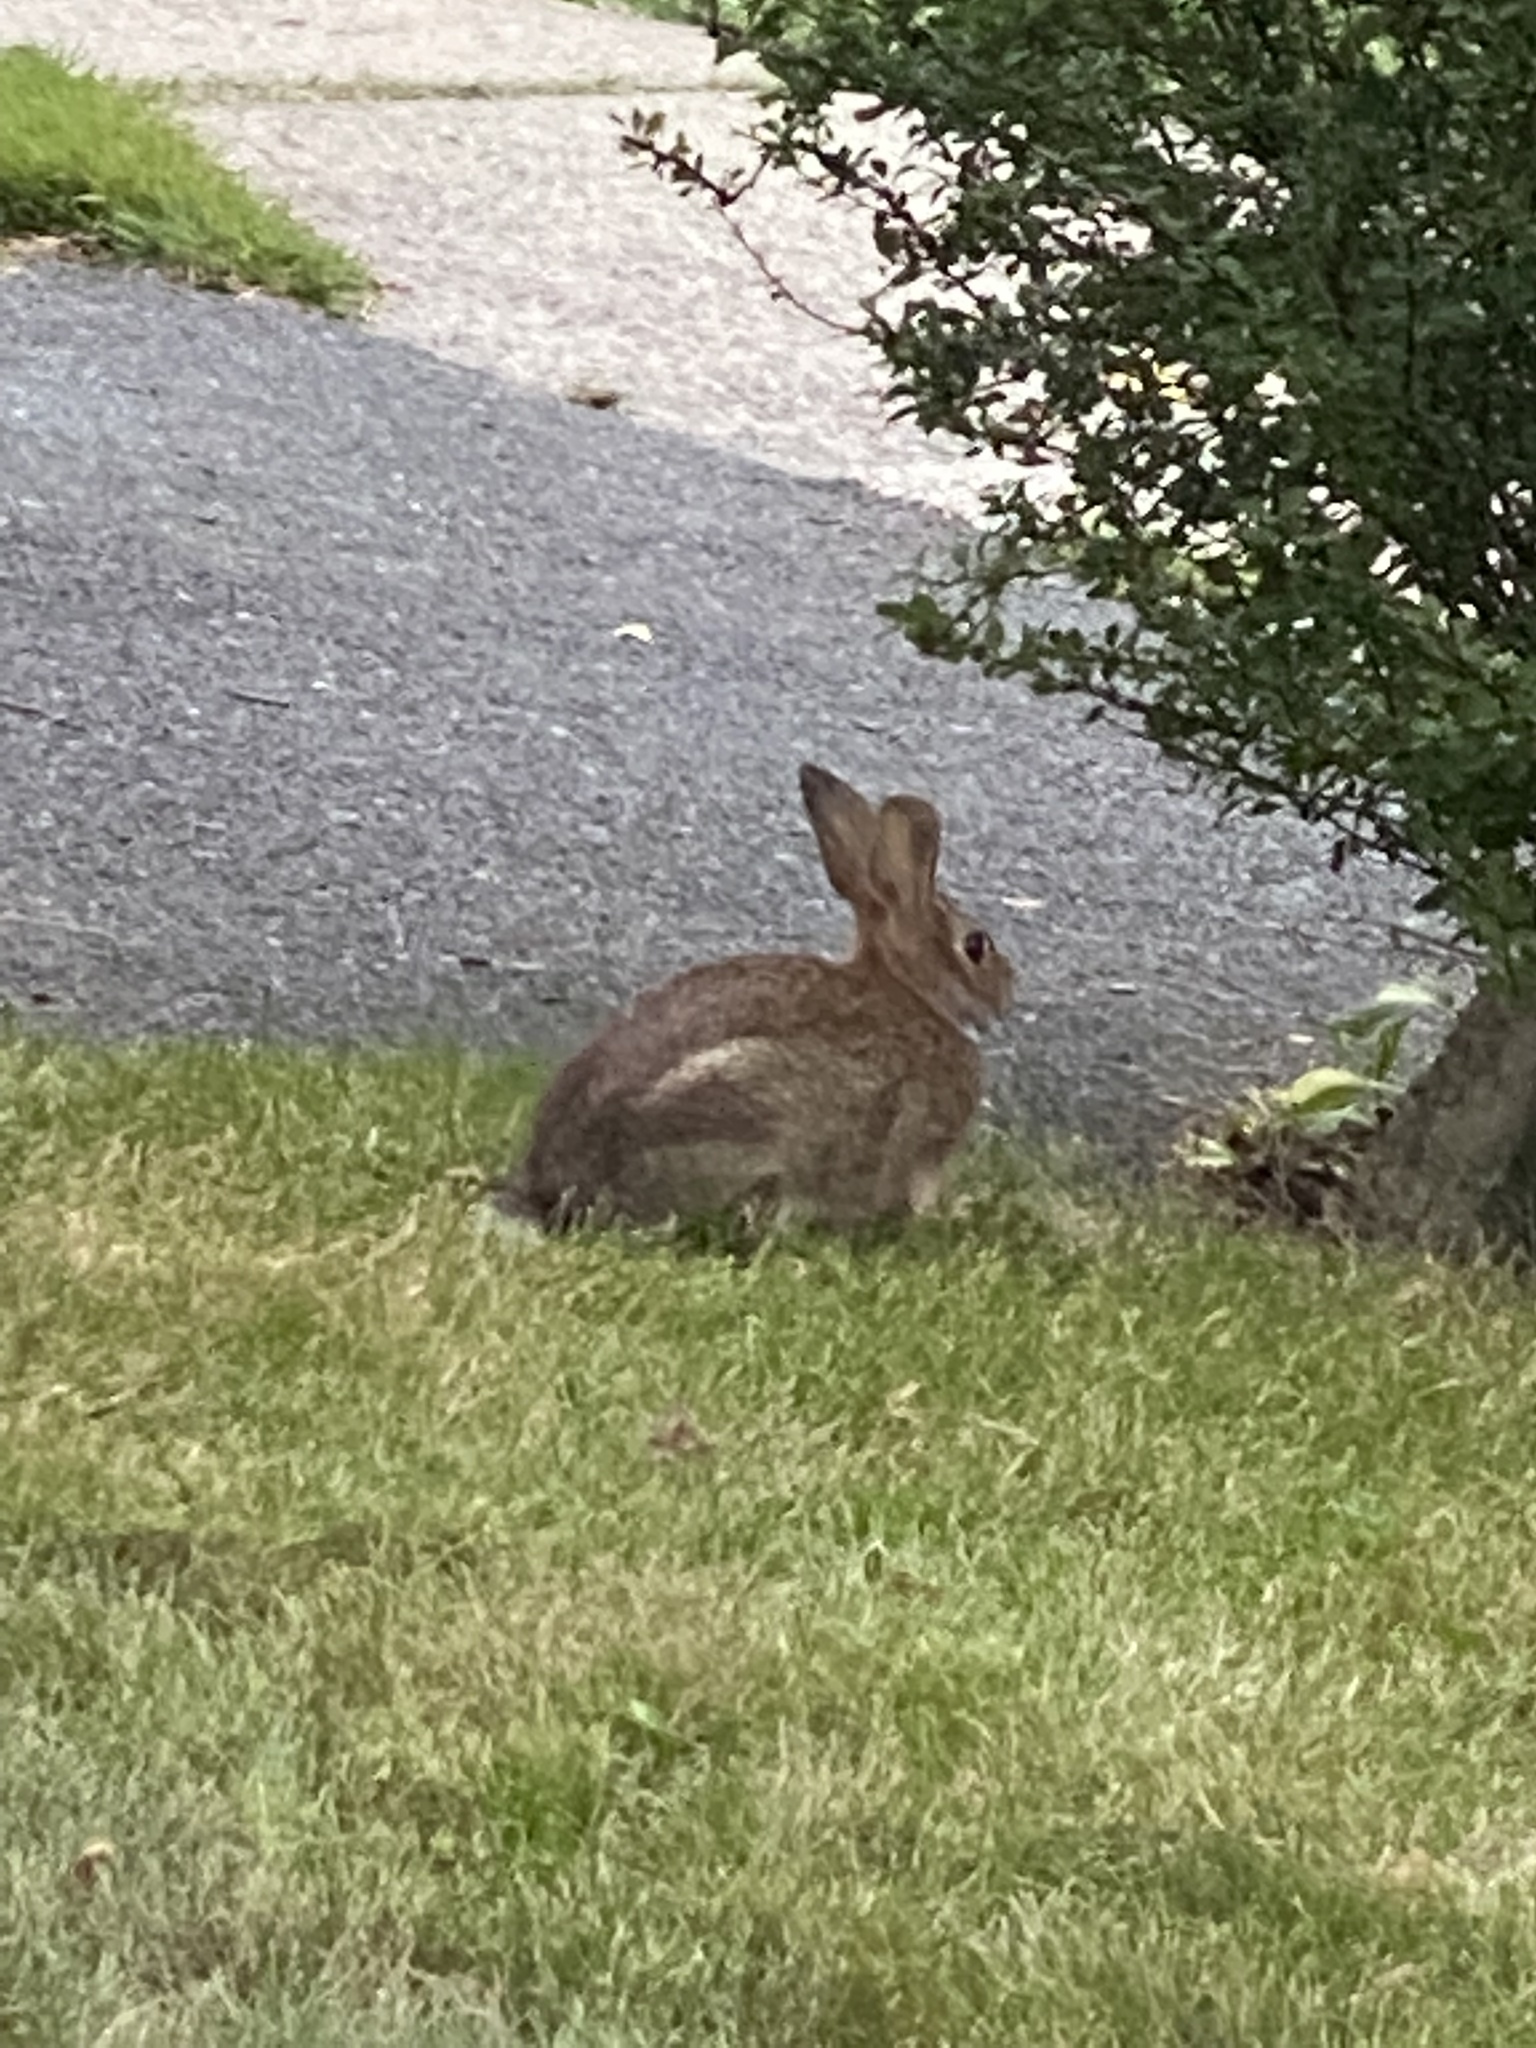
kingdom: Animalia
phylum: Chordata
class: Mammalia
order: Lagomorpha
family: Leporidae
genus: Sylvilagus
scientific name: Sylvilagus floridanus
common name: Eastern cottontail
